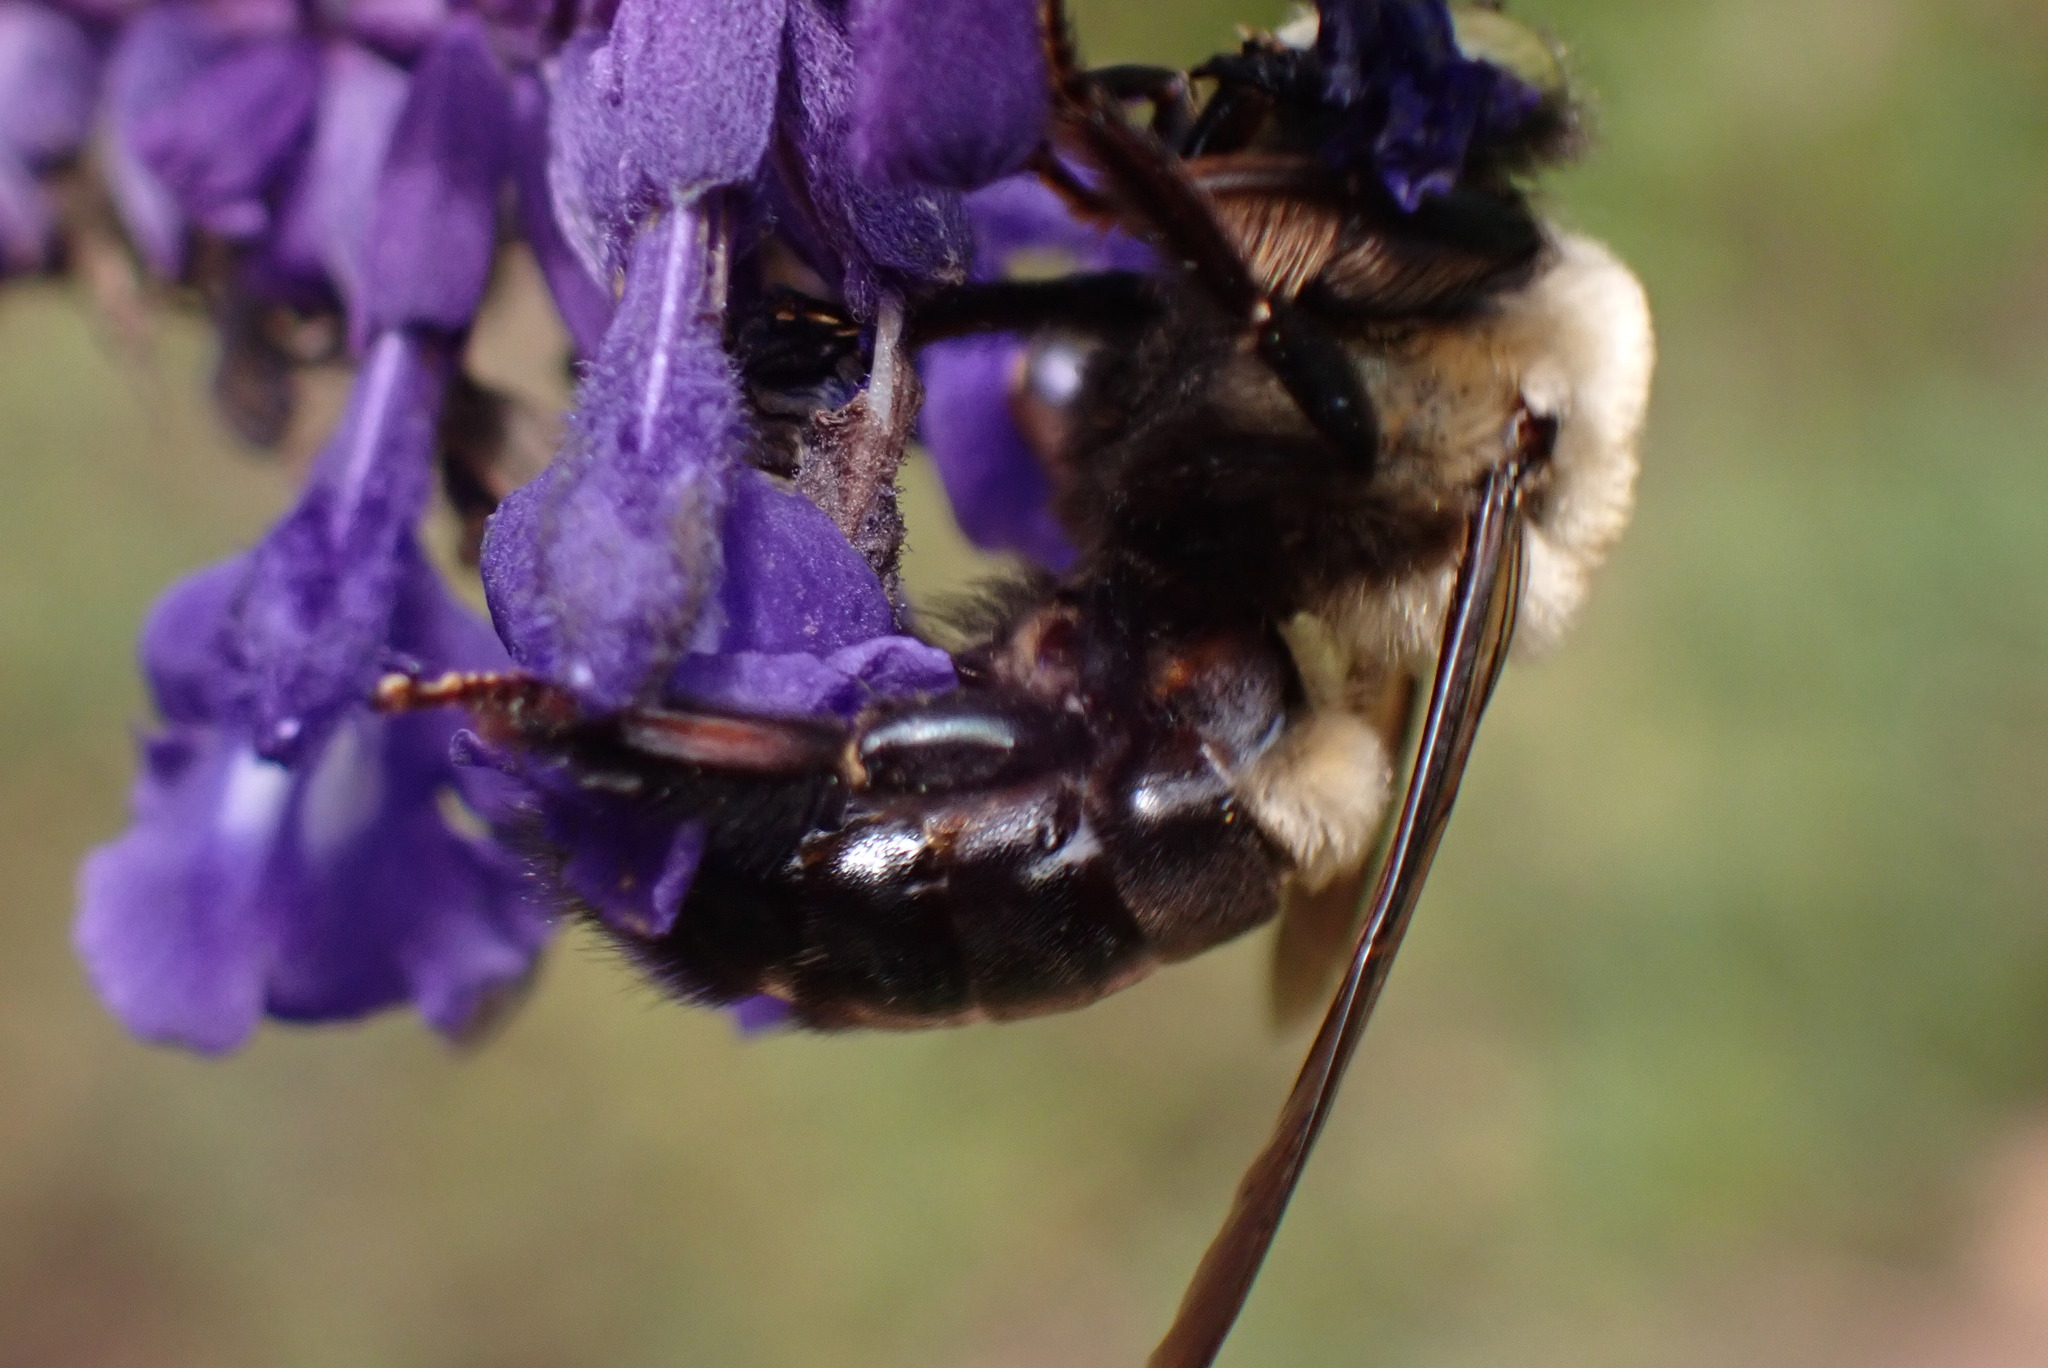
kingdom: Animalia
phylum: Arthropoda
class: Insecta
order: Hymenoptera
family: Apidae
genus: Xylocopa
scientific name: Xylocopa virginica
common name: Carpenter bee
